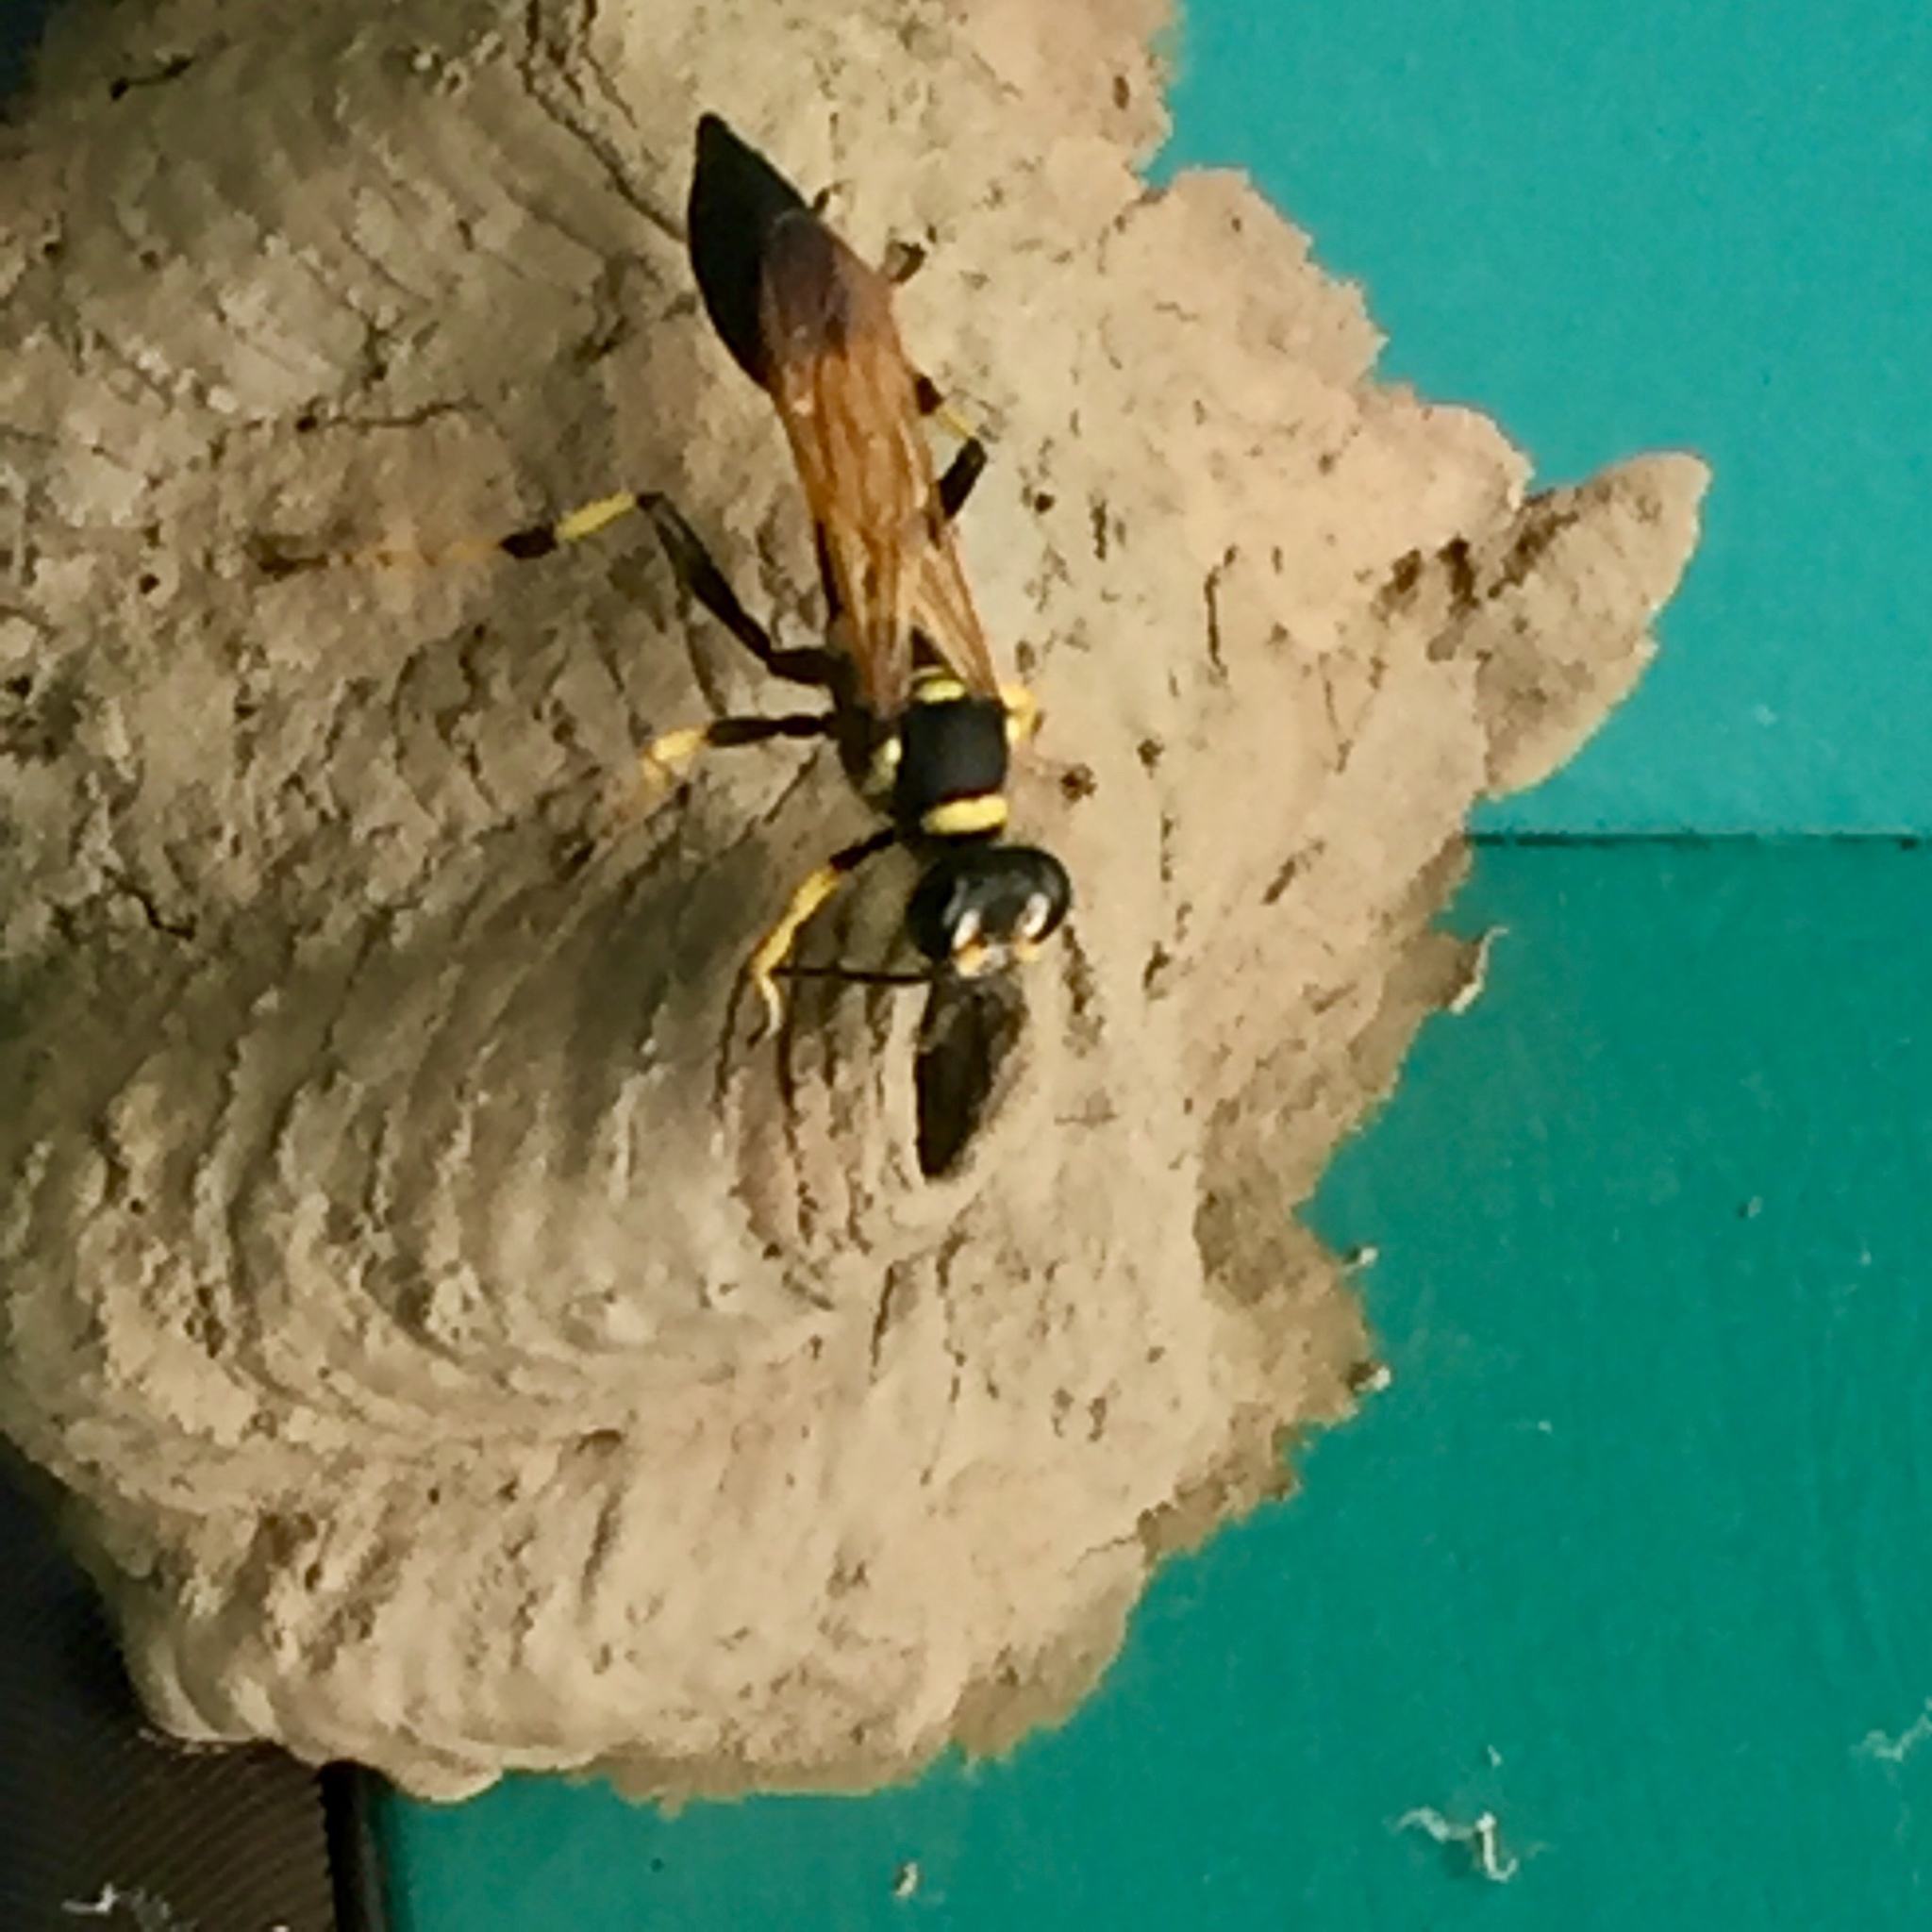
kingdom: Animalia
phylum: Arthropoda
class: Insecta
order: Hymenoptera
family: Sphecidae
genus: Sceliphron
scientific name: Sceliphron caementarium
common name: Mud dauber
